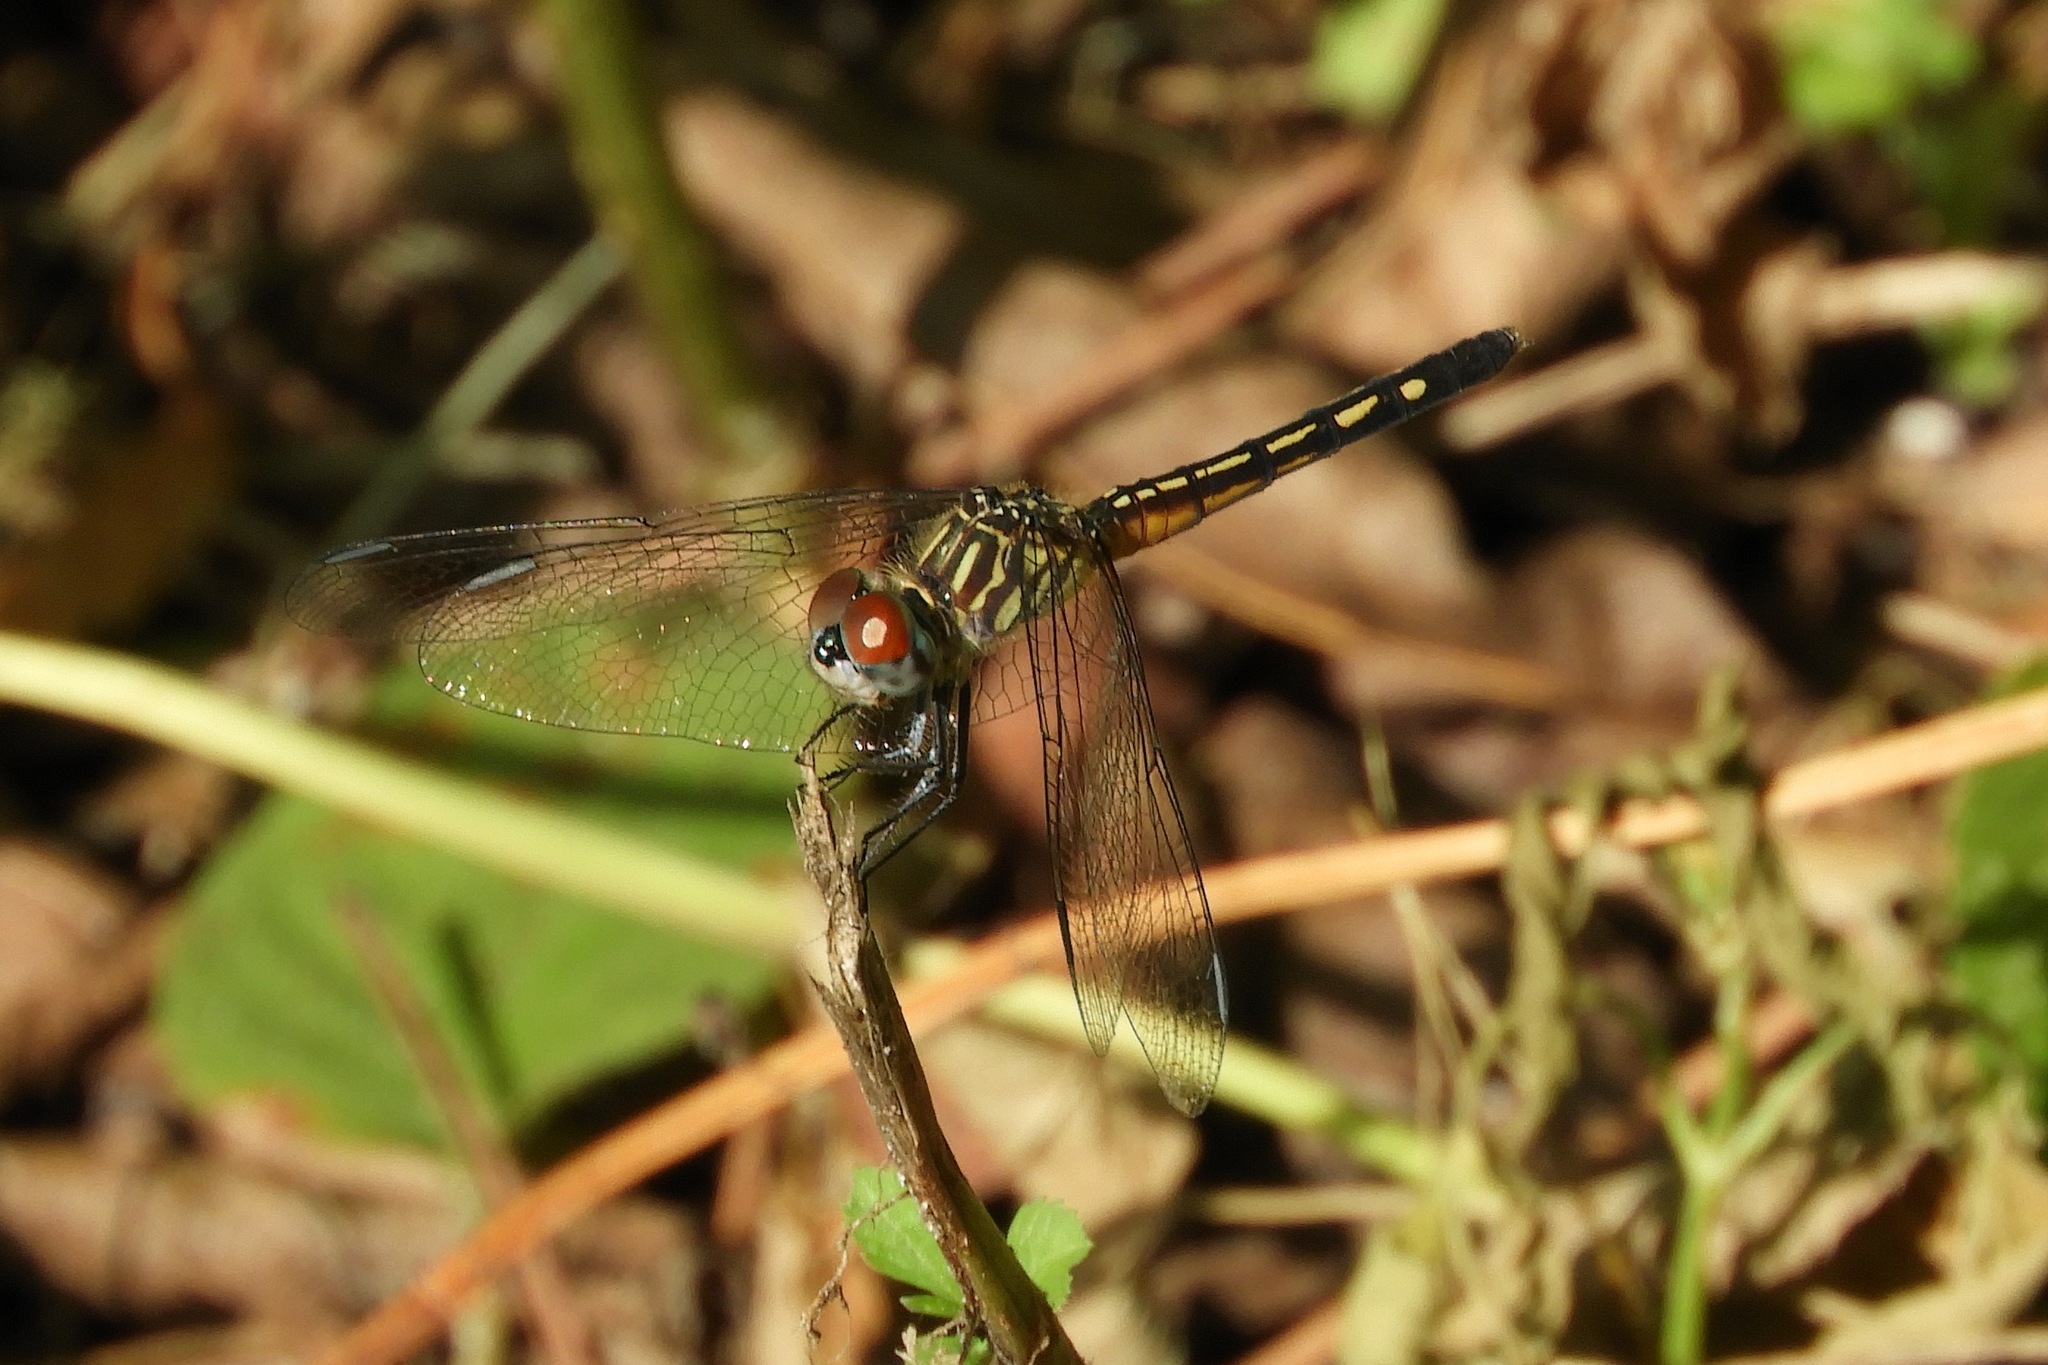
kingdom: Animalia
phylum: Arthropoda
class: Insecta
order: Odonata
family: Libellulidae
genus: Pachydiplax
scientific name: Pachydiplax longipennis
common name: Blue dasher
